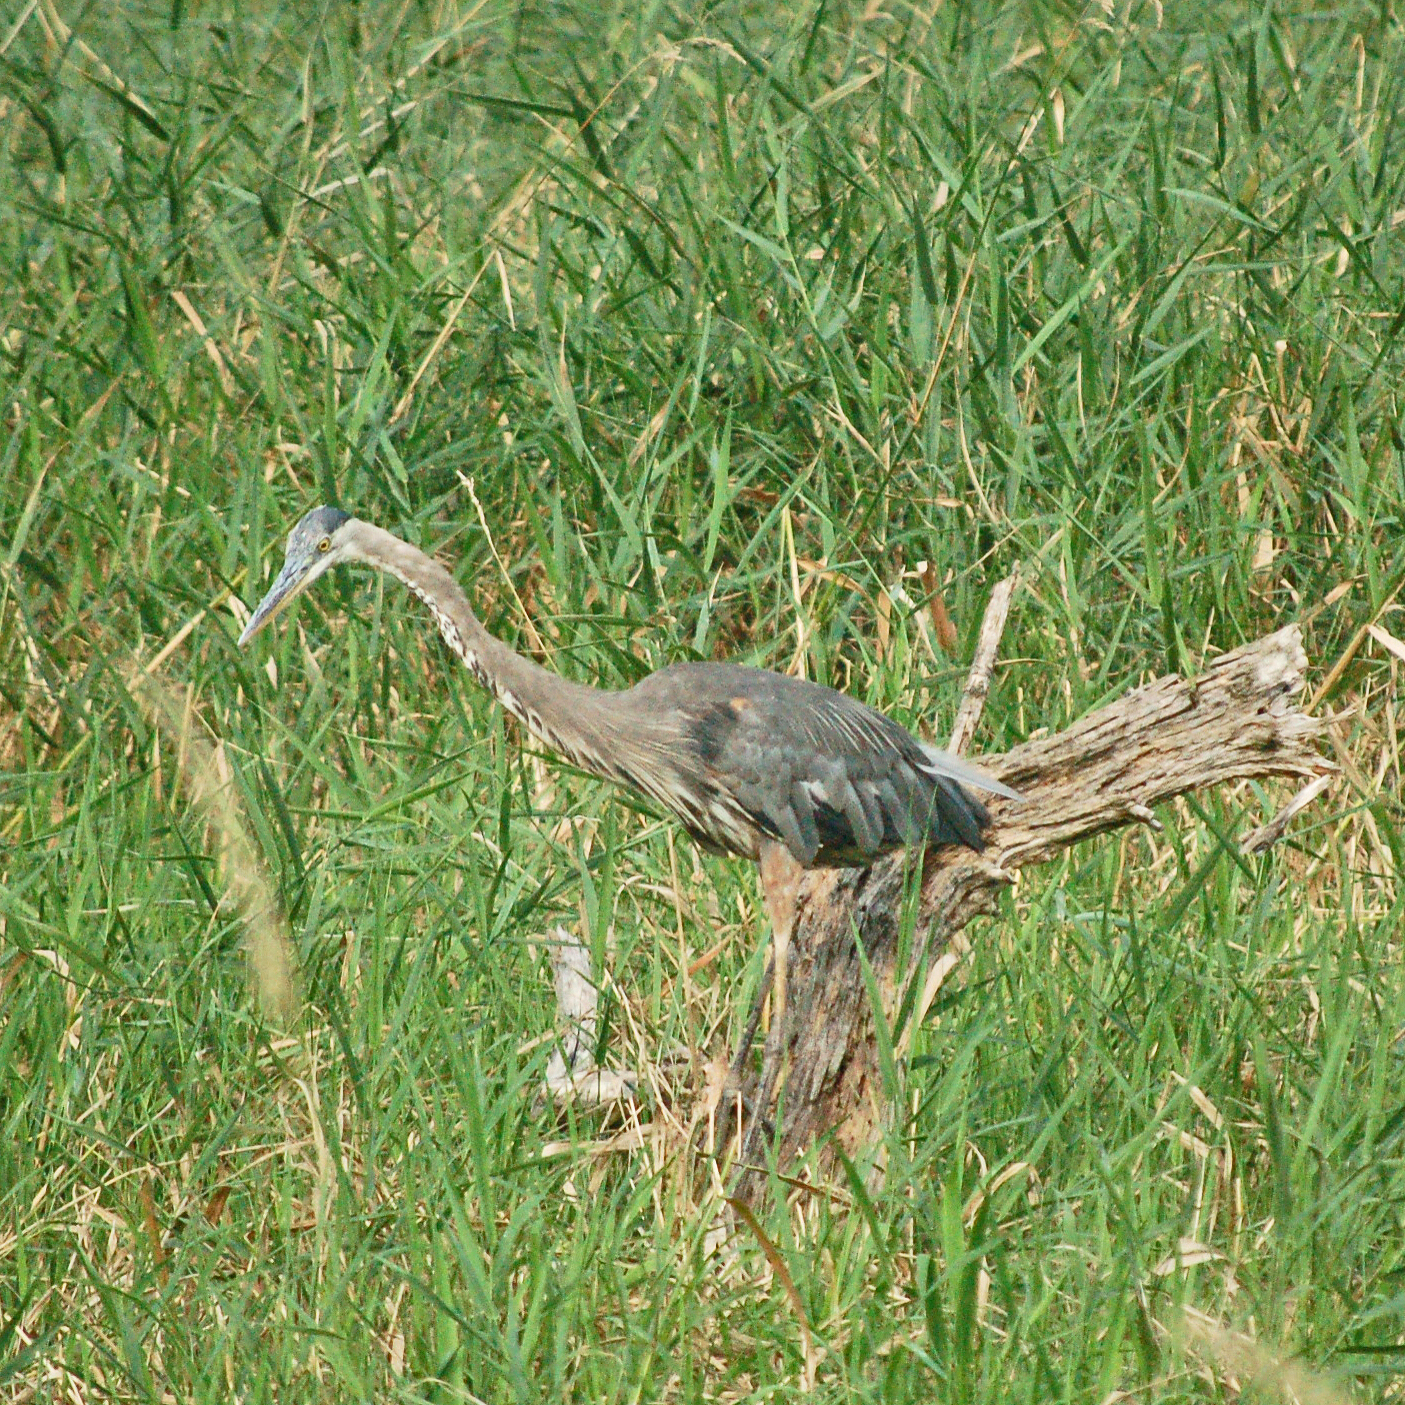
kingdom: Animalia
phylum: Chordata
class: Aves
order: Pelecaniformes
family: Ardeidae
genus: Ardea
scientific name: Ardea herodias
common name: Great blue heron
